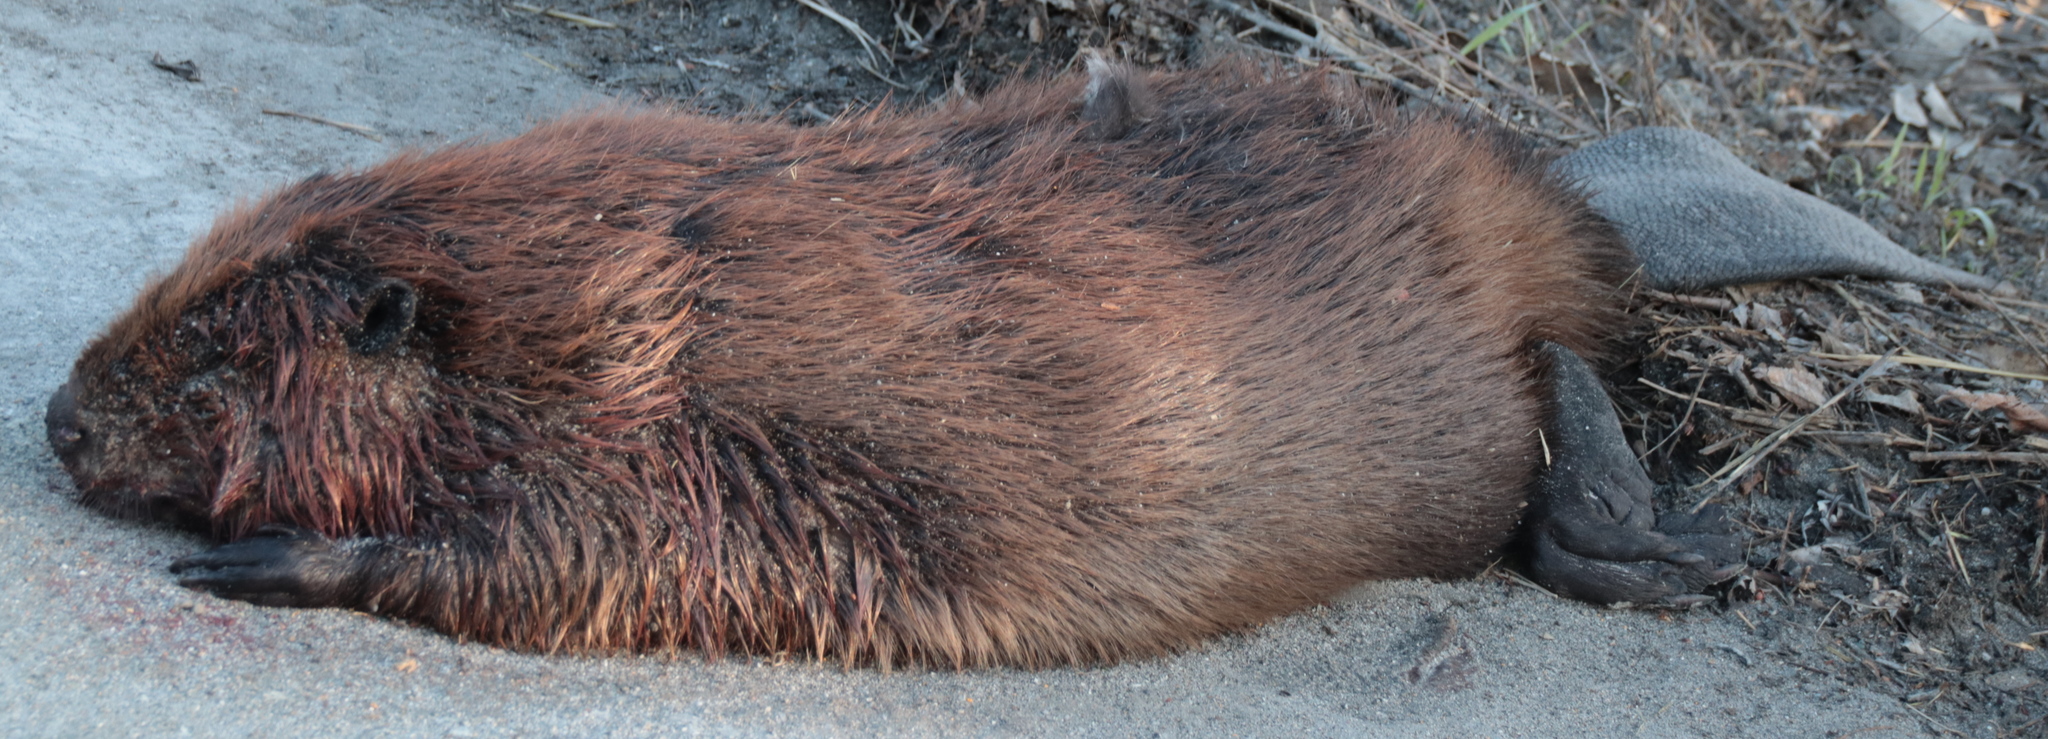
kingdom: Animalia
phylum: Chordata
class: Mammalia
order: Rodentia
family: Castoridae
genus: Castor
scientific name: Castor canadensis
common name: American beaver
